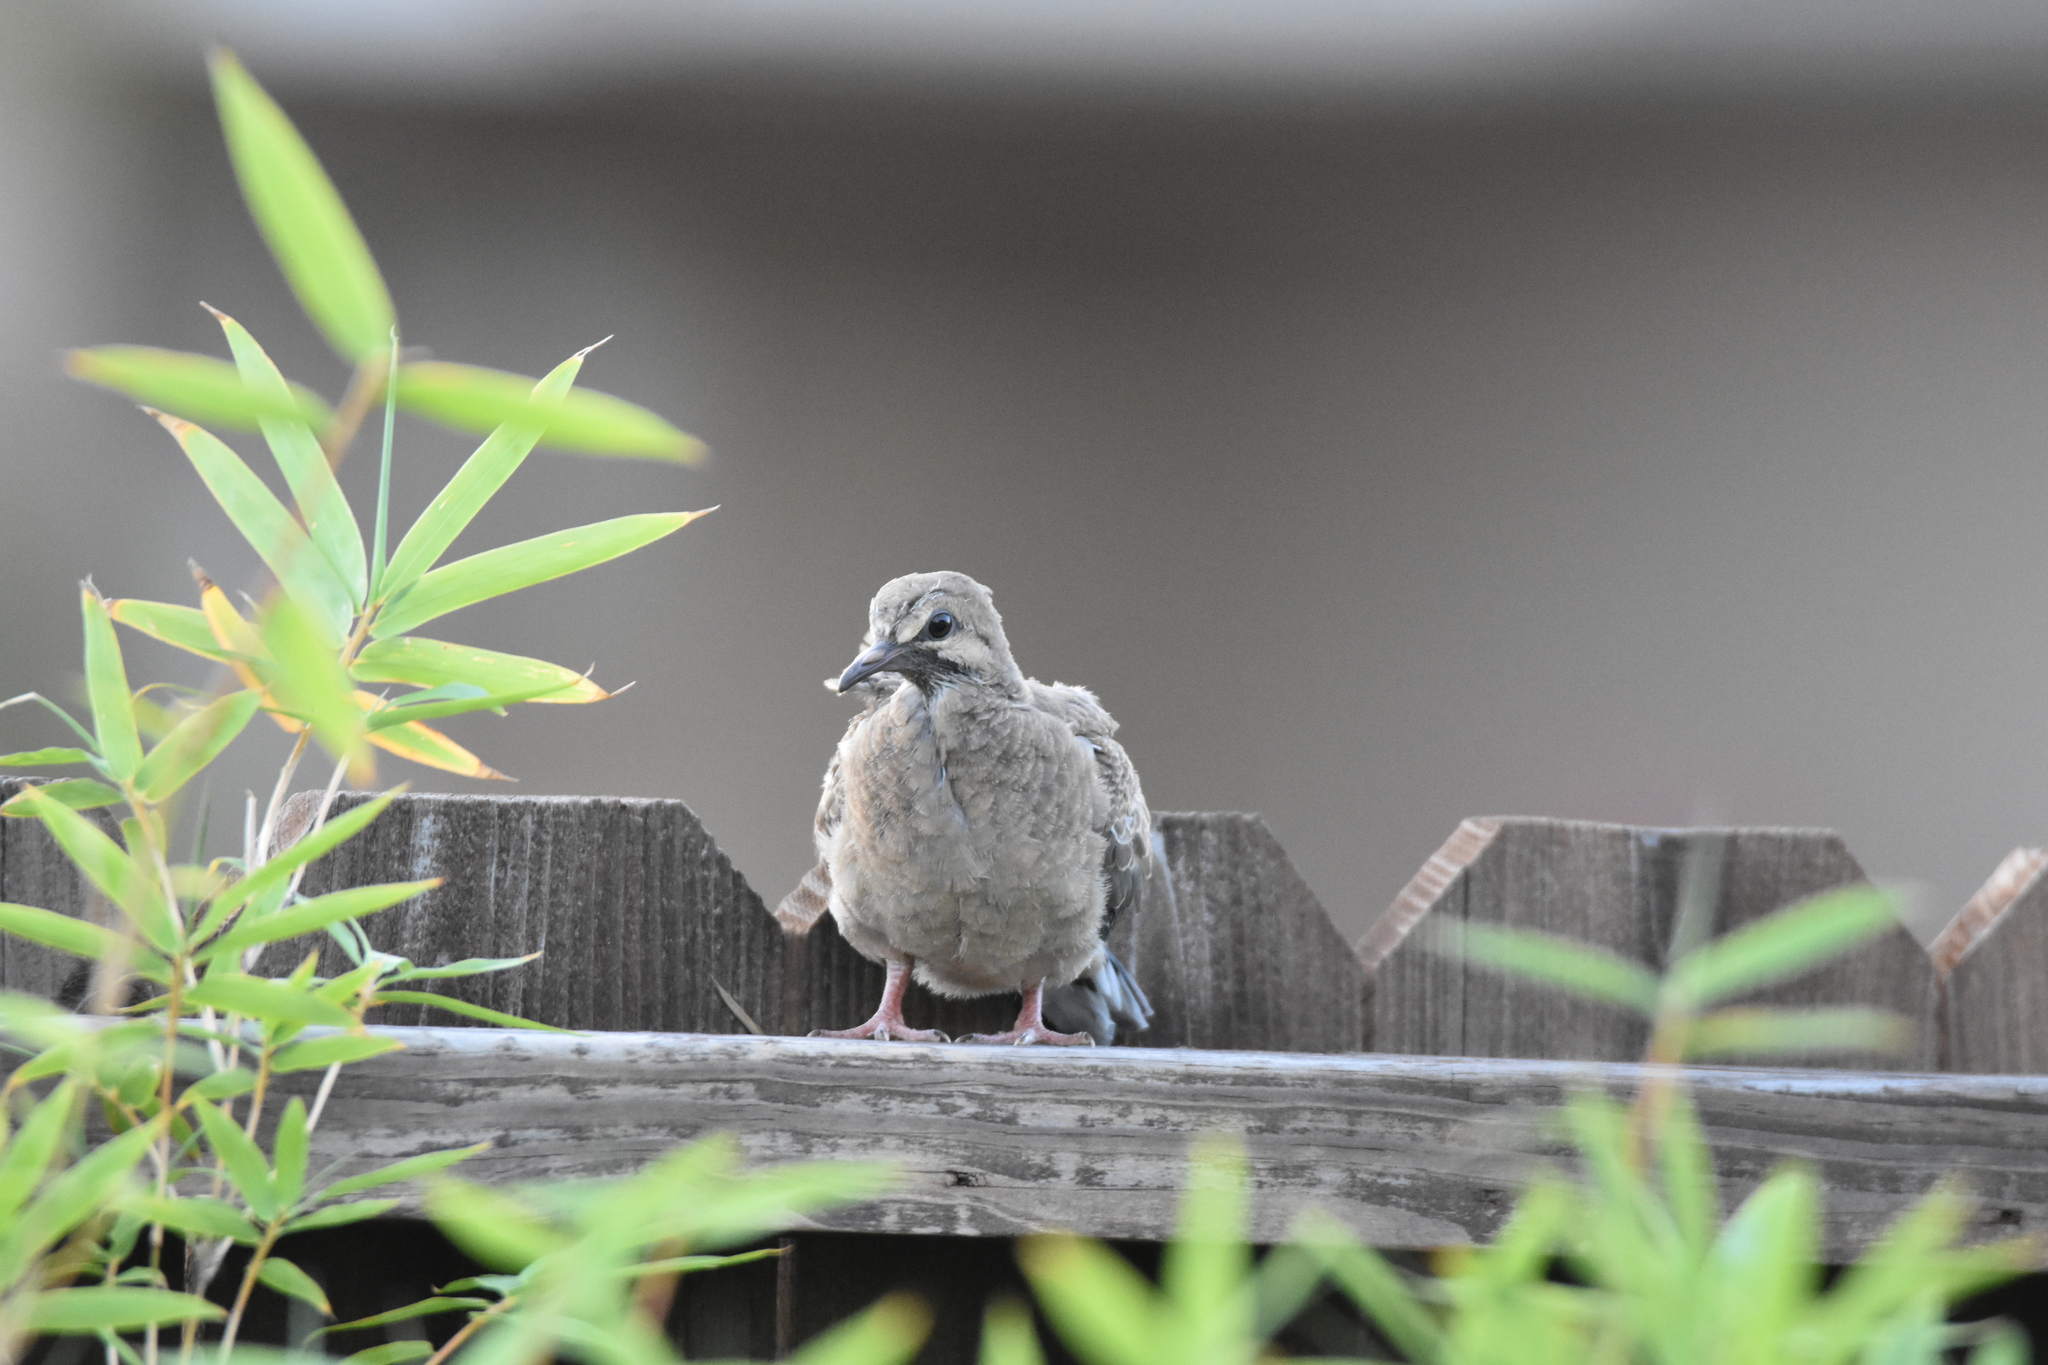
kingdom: Animalia
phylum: Chordata
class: Aves
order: Columbiformes
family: Columbidae
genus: Zenaida
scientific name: Zenaida macroura
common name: Mourning dove
